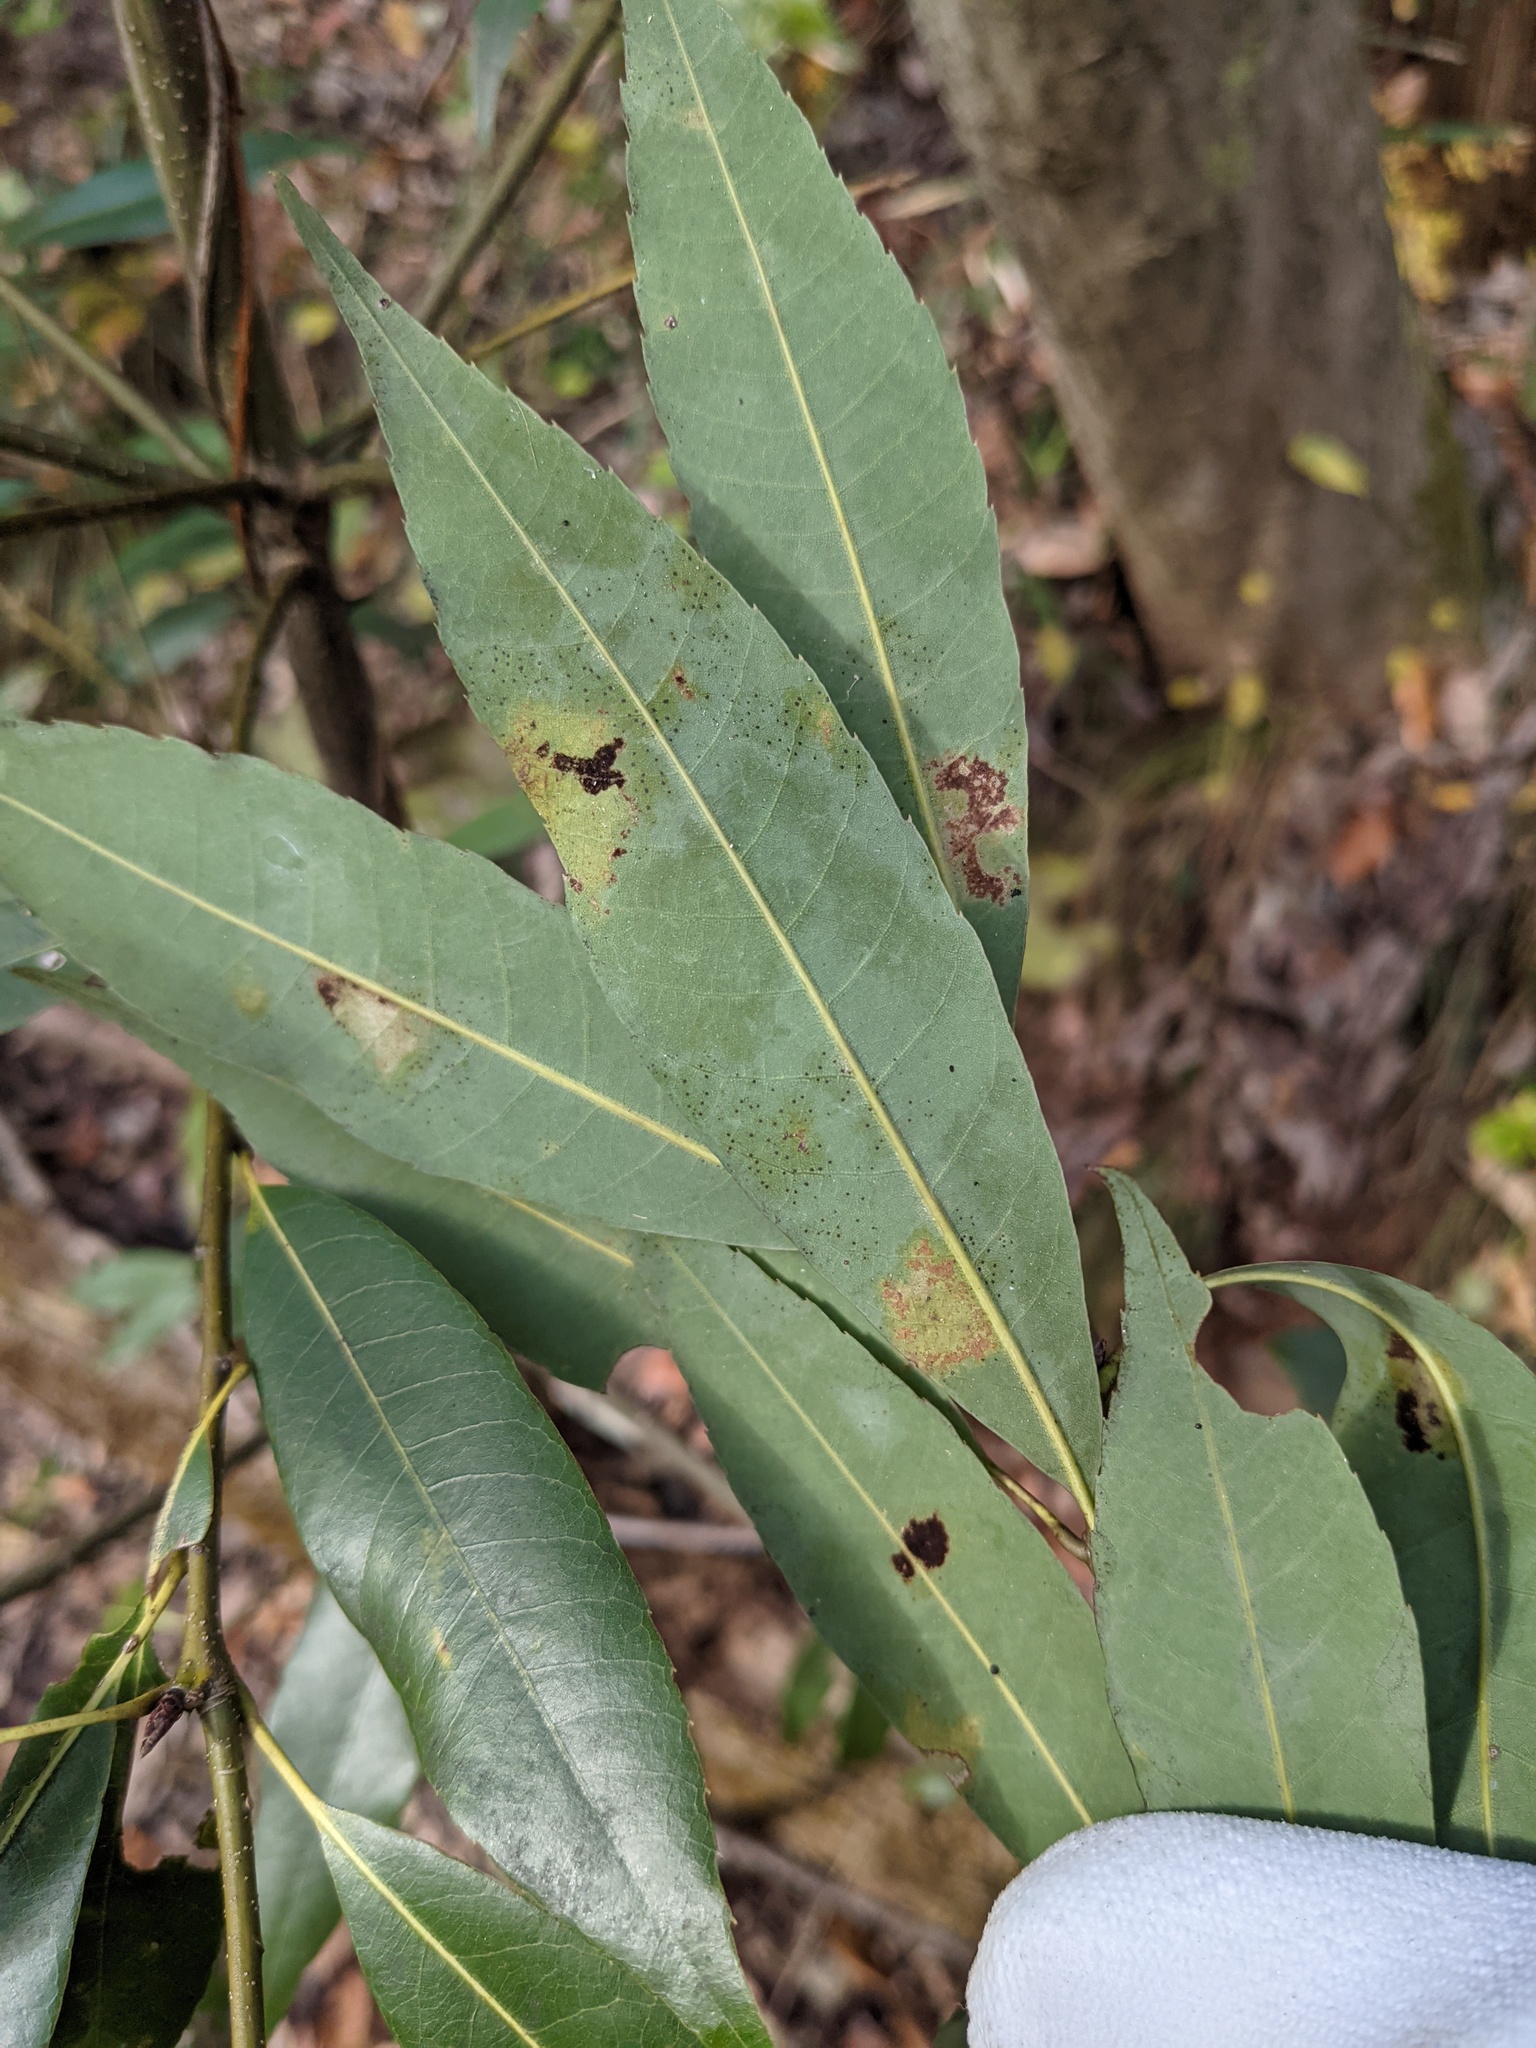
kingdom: Fungi
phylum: Ascomycota
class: Leotiomycetes
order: Helotiales
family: Erysiphaceae
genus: Cystotheca
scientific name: Cystotheca wrightii
